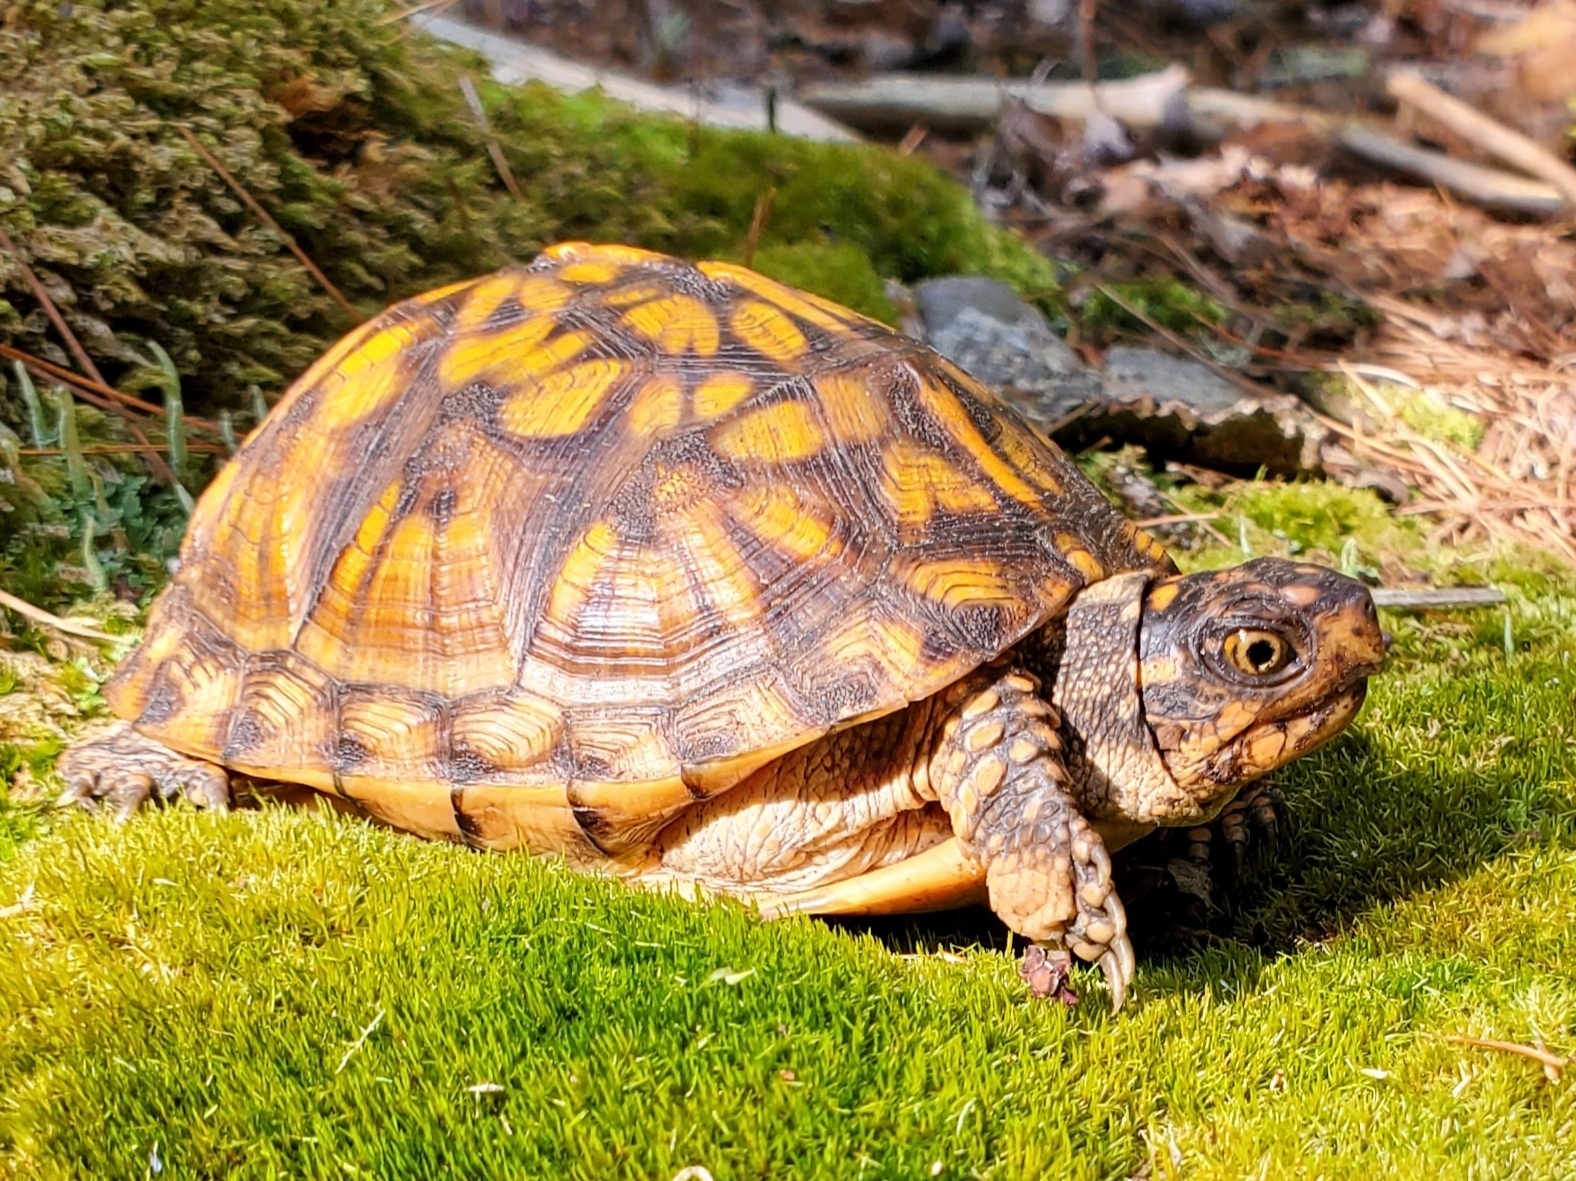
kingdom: Animalia
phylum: Chordata
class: Testudines
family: Emydidae
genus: Terrapene
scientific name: Terrapene carolina
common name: Common box turtle
